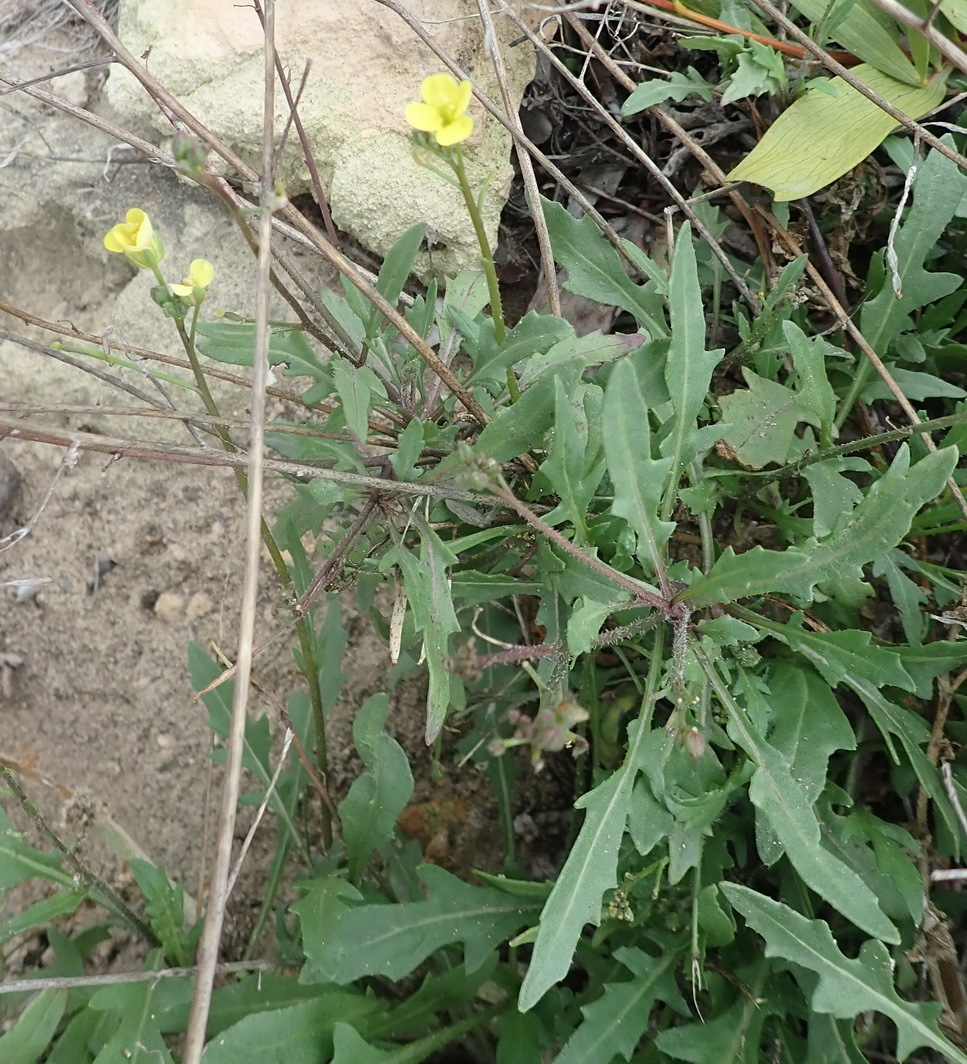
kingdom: Plantae
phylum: Tracheophyta
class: Magnoliopsida
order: Brassicales
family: Brassicaceae
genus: Diplotaxis
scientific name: Diplotaxis muralis
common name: Annual wall-rocket
